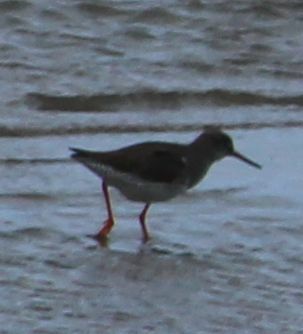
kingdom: Animalia
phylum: Chordata
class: Aves
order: Charadriiformes
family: Scolopacidae
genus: Tringa
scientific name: Tringa totanus
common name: Common redshank
